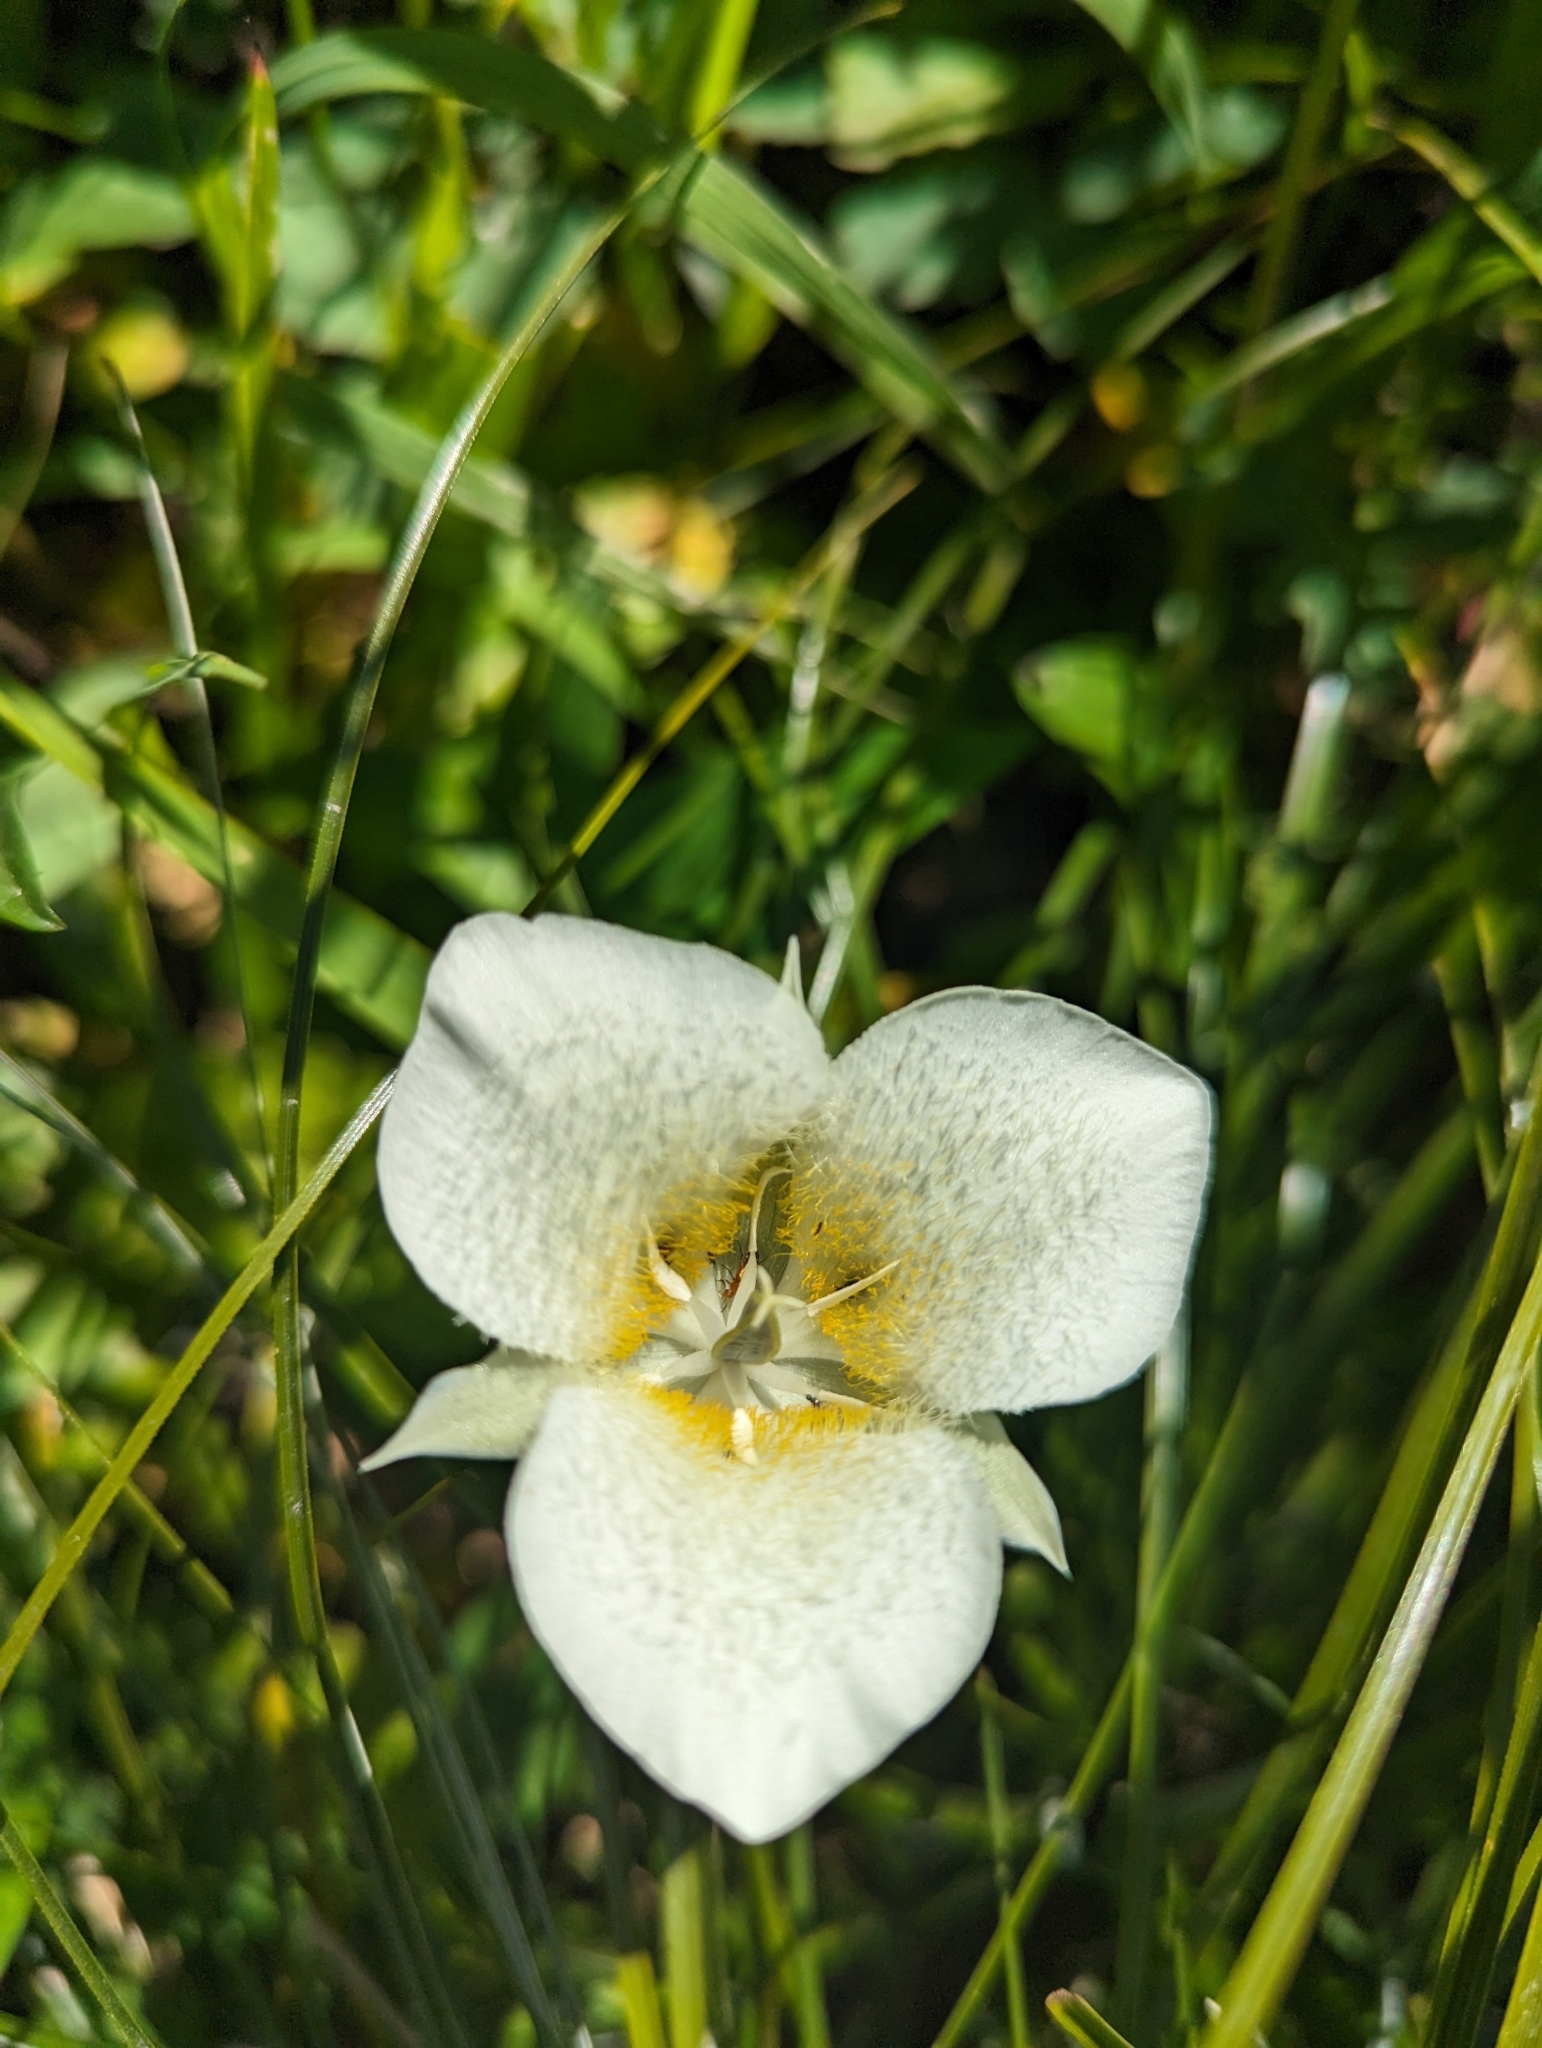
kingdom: Plantae
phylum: Tracheophyta
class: Liliopsida
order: Liliales
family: Liliaceae
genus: Calochortus
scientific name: Calochortus apiculatus
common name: Baker's mariposa lily
